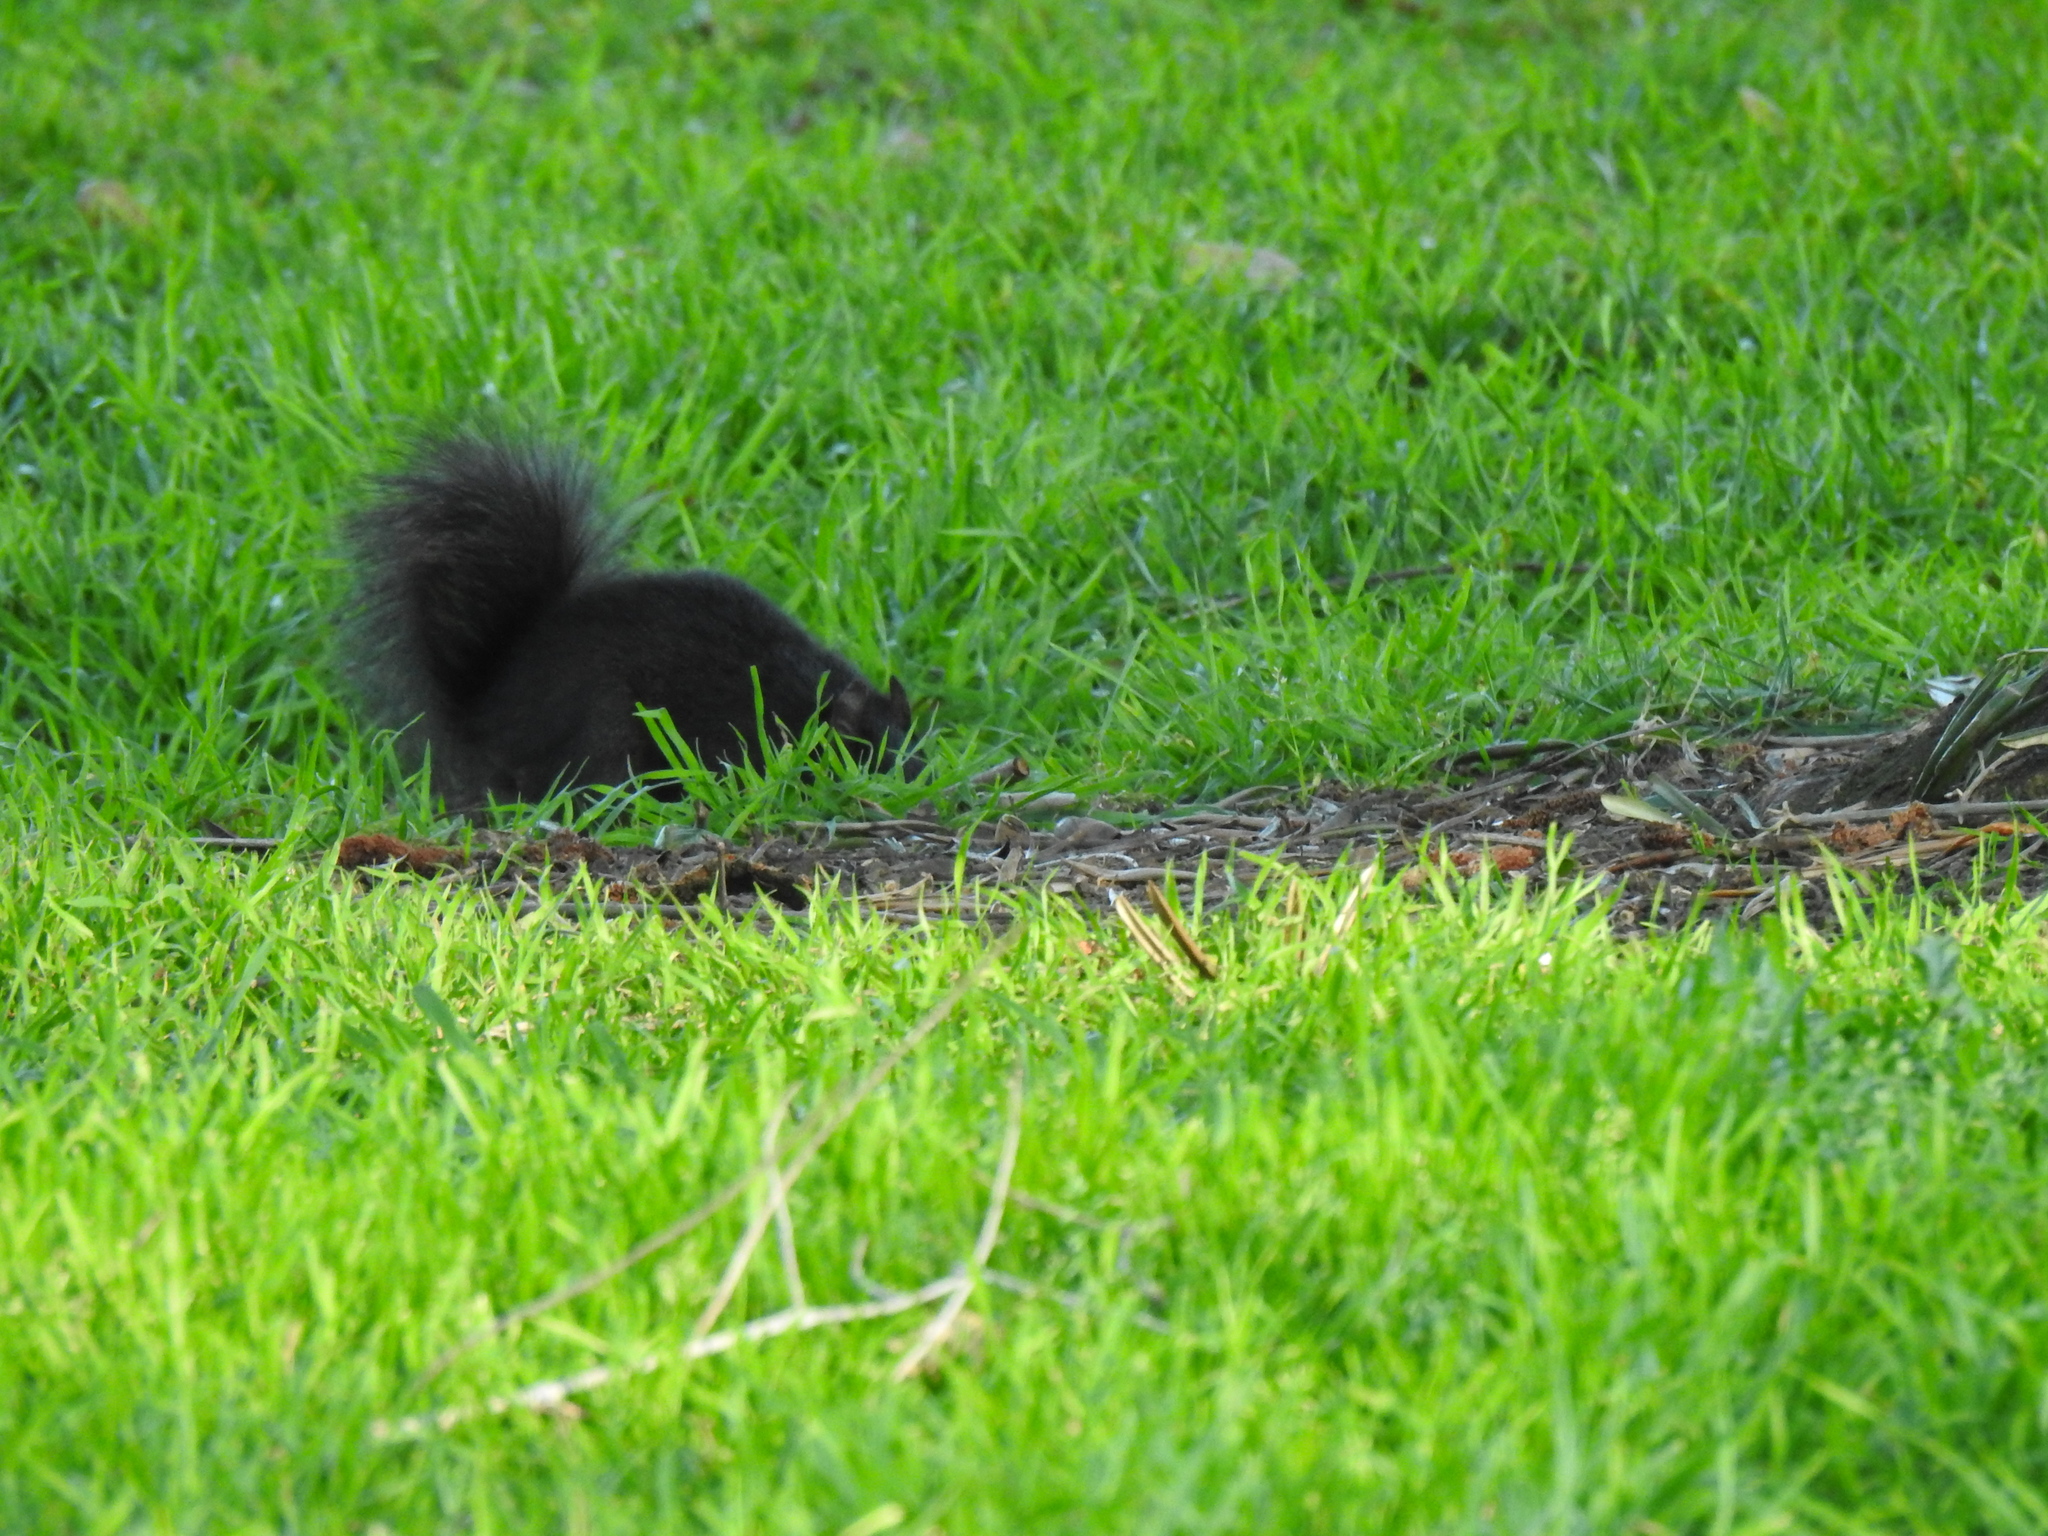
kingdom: Animalia
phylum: Chordata
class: Mammalia
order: Rodentia
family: Sciuridae
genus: Sciurus
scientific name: Sciurus carolinensis
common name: Eastern gray squirrel
